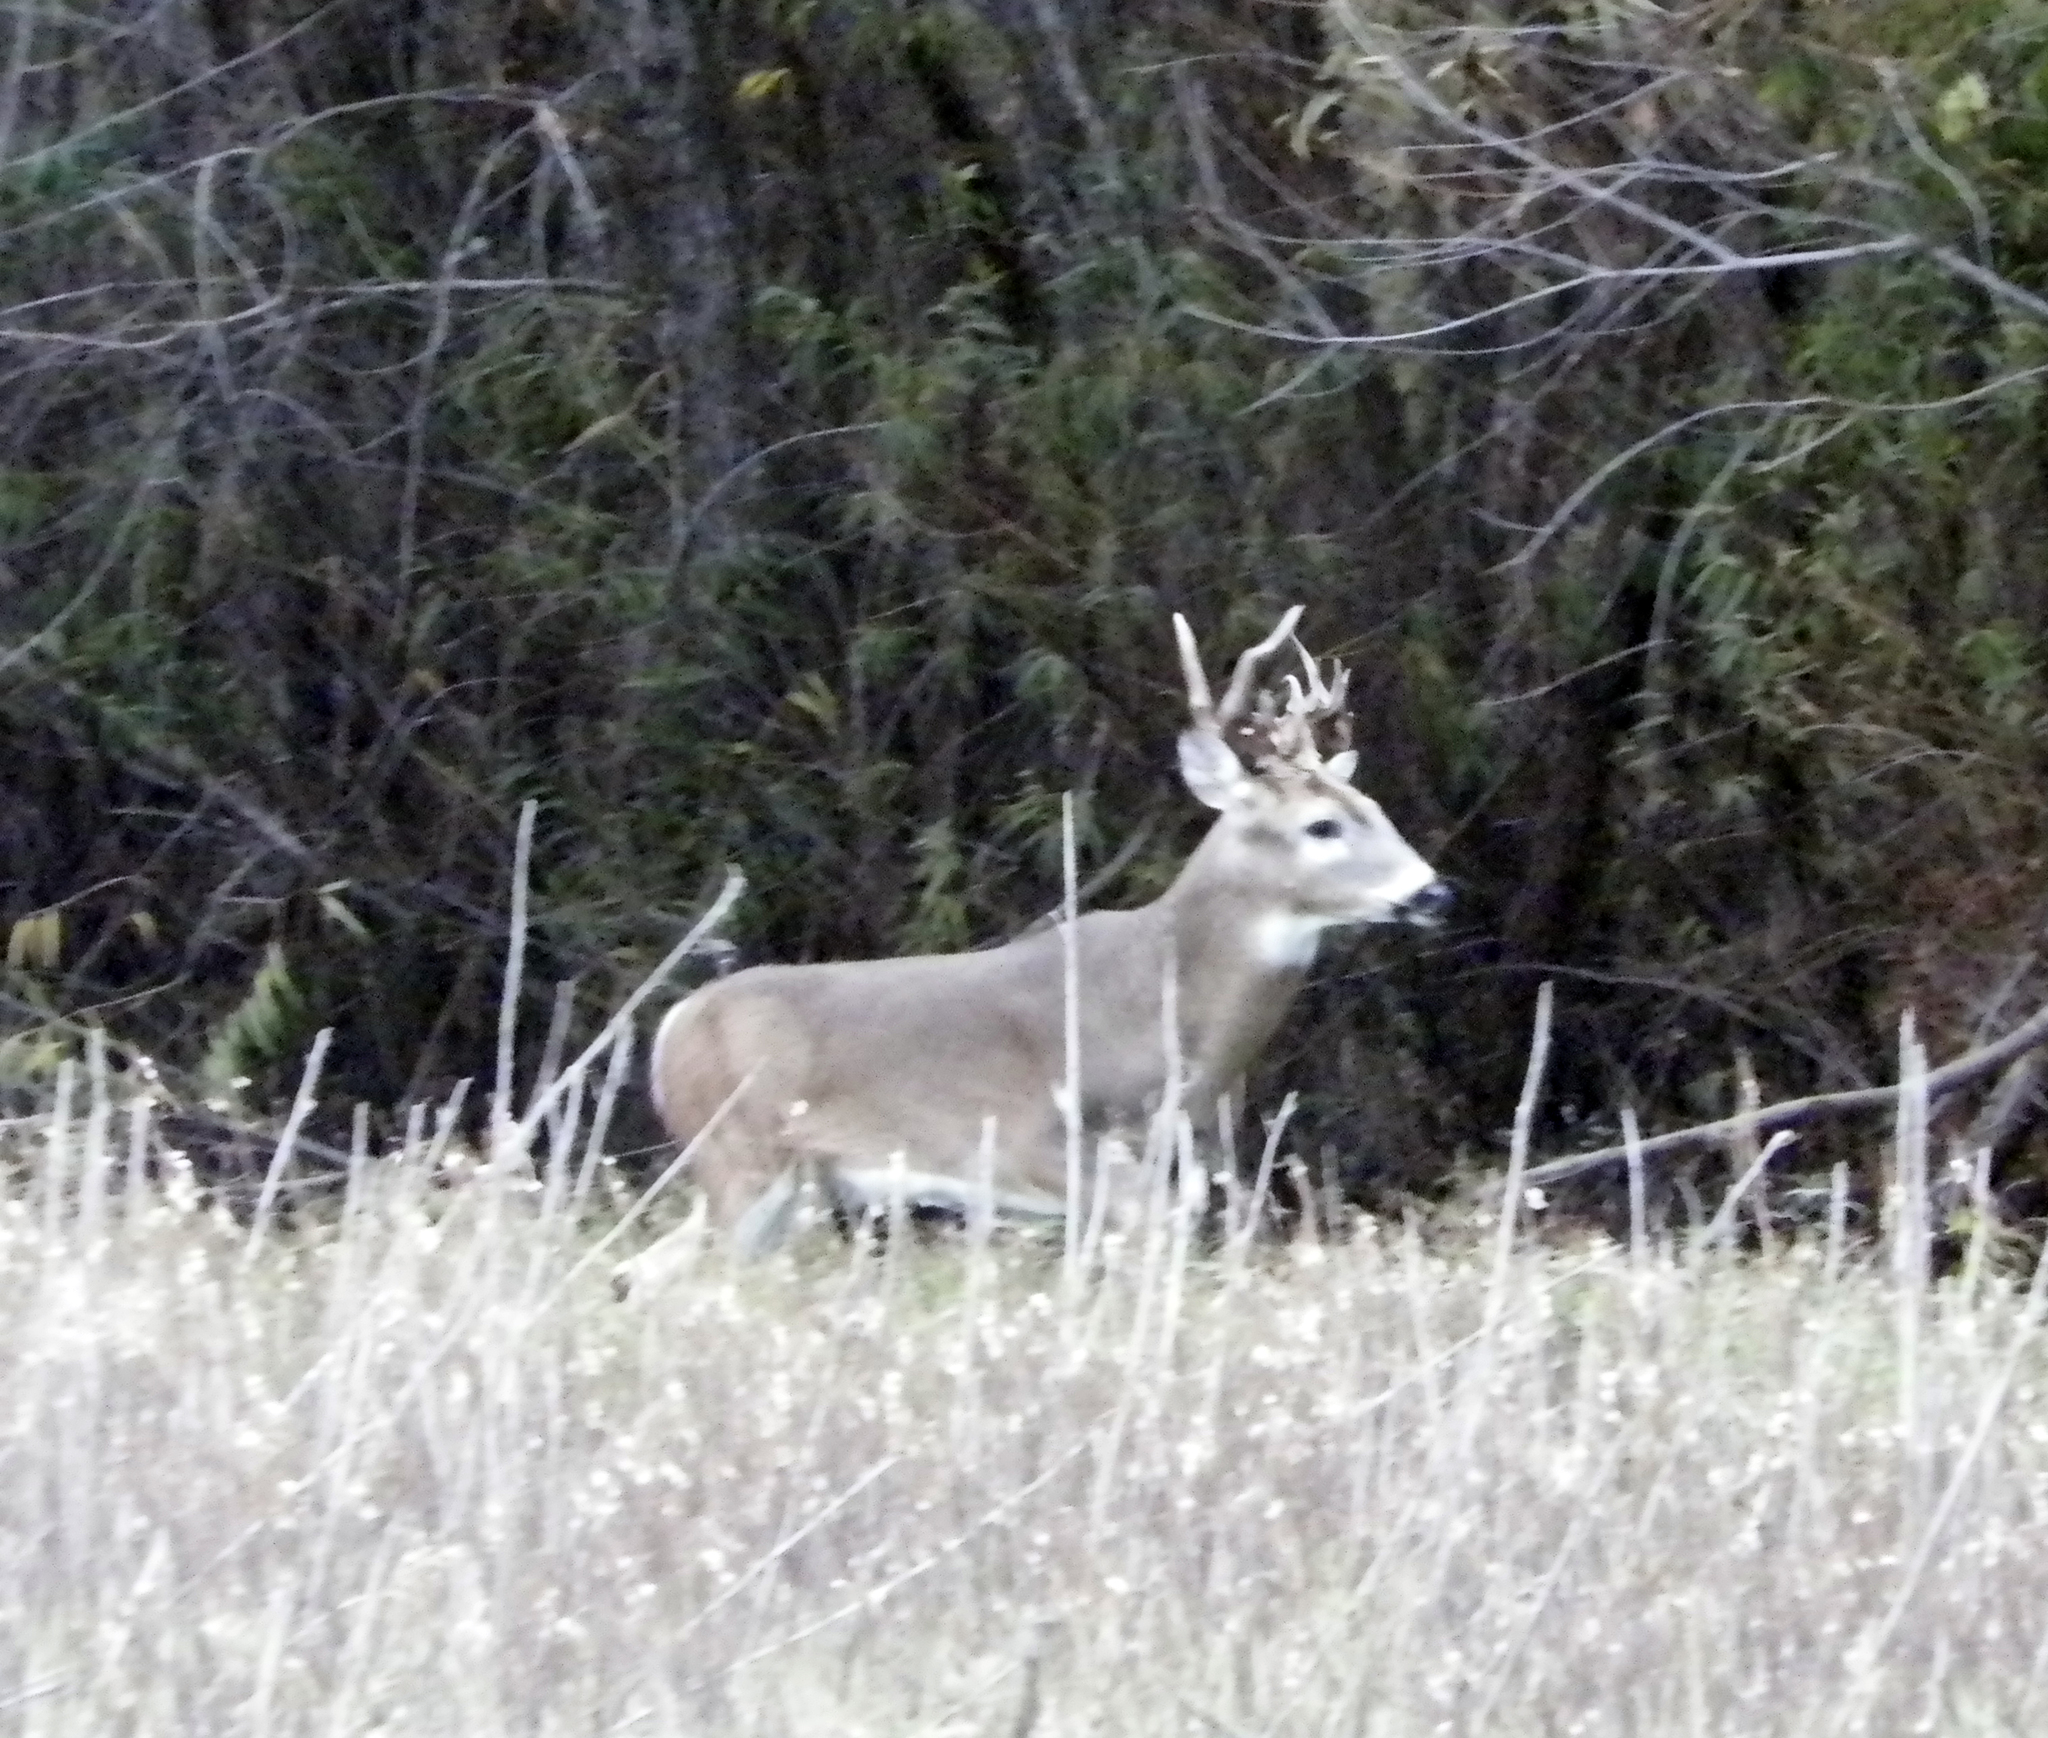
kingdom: Animalia
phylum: Chordata
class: Mammalia
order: Artiodactyla
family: Cervidae
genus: Odocoileus
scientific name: Odocoileus virginianus
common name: White-tailed deer
